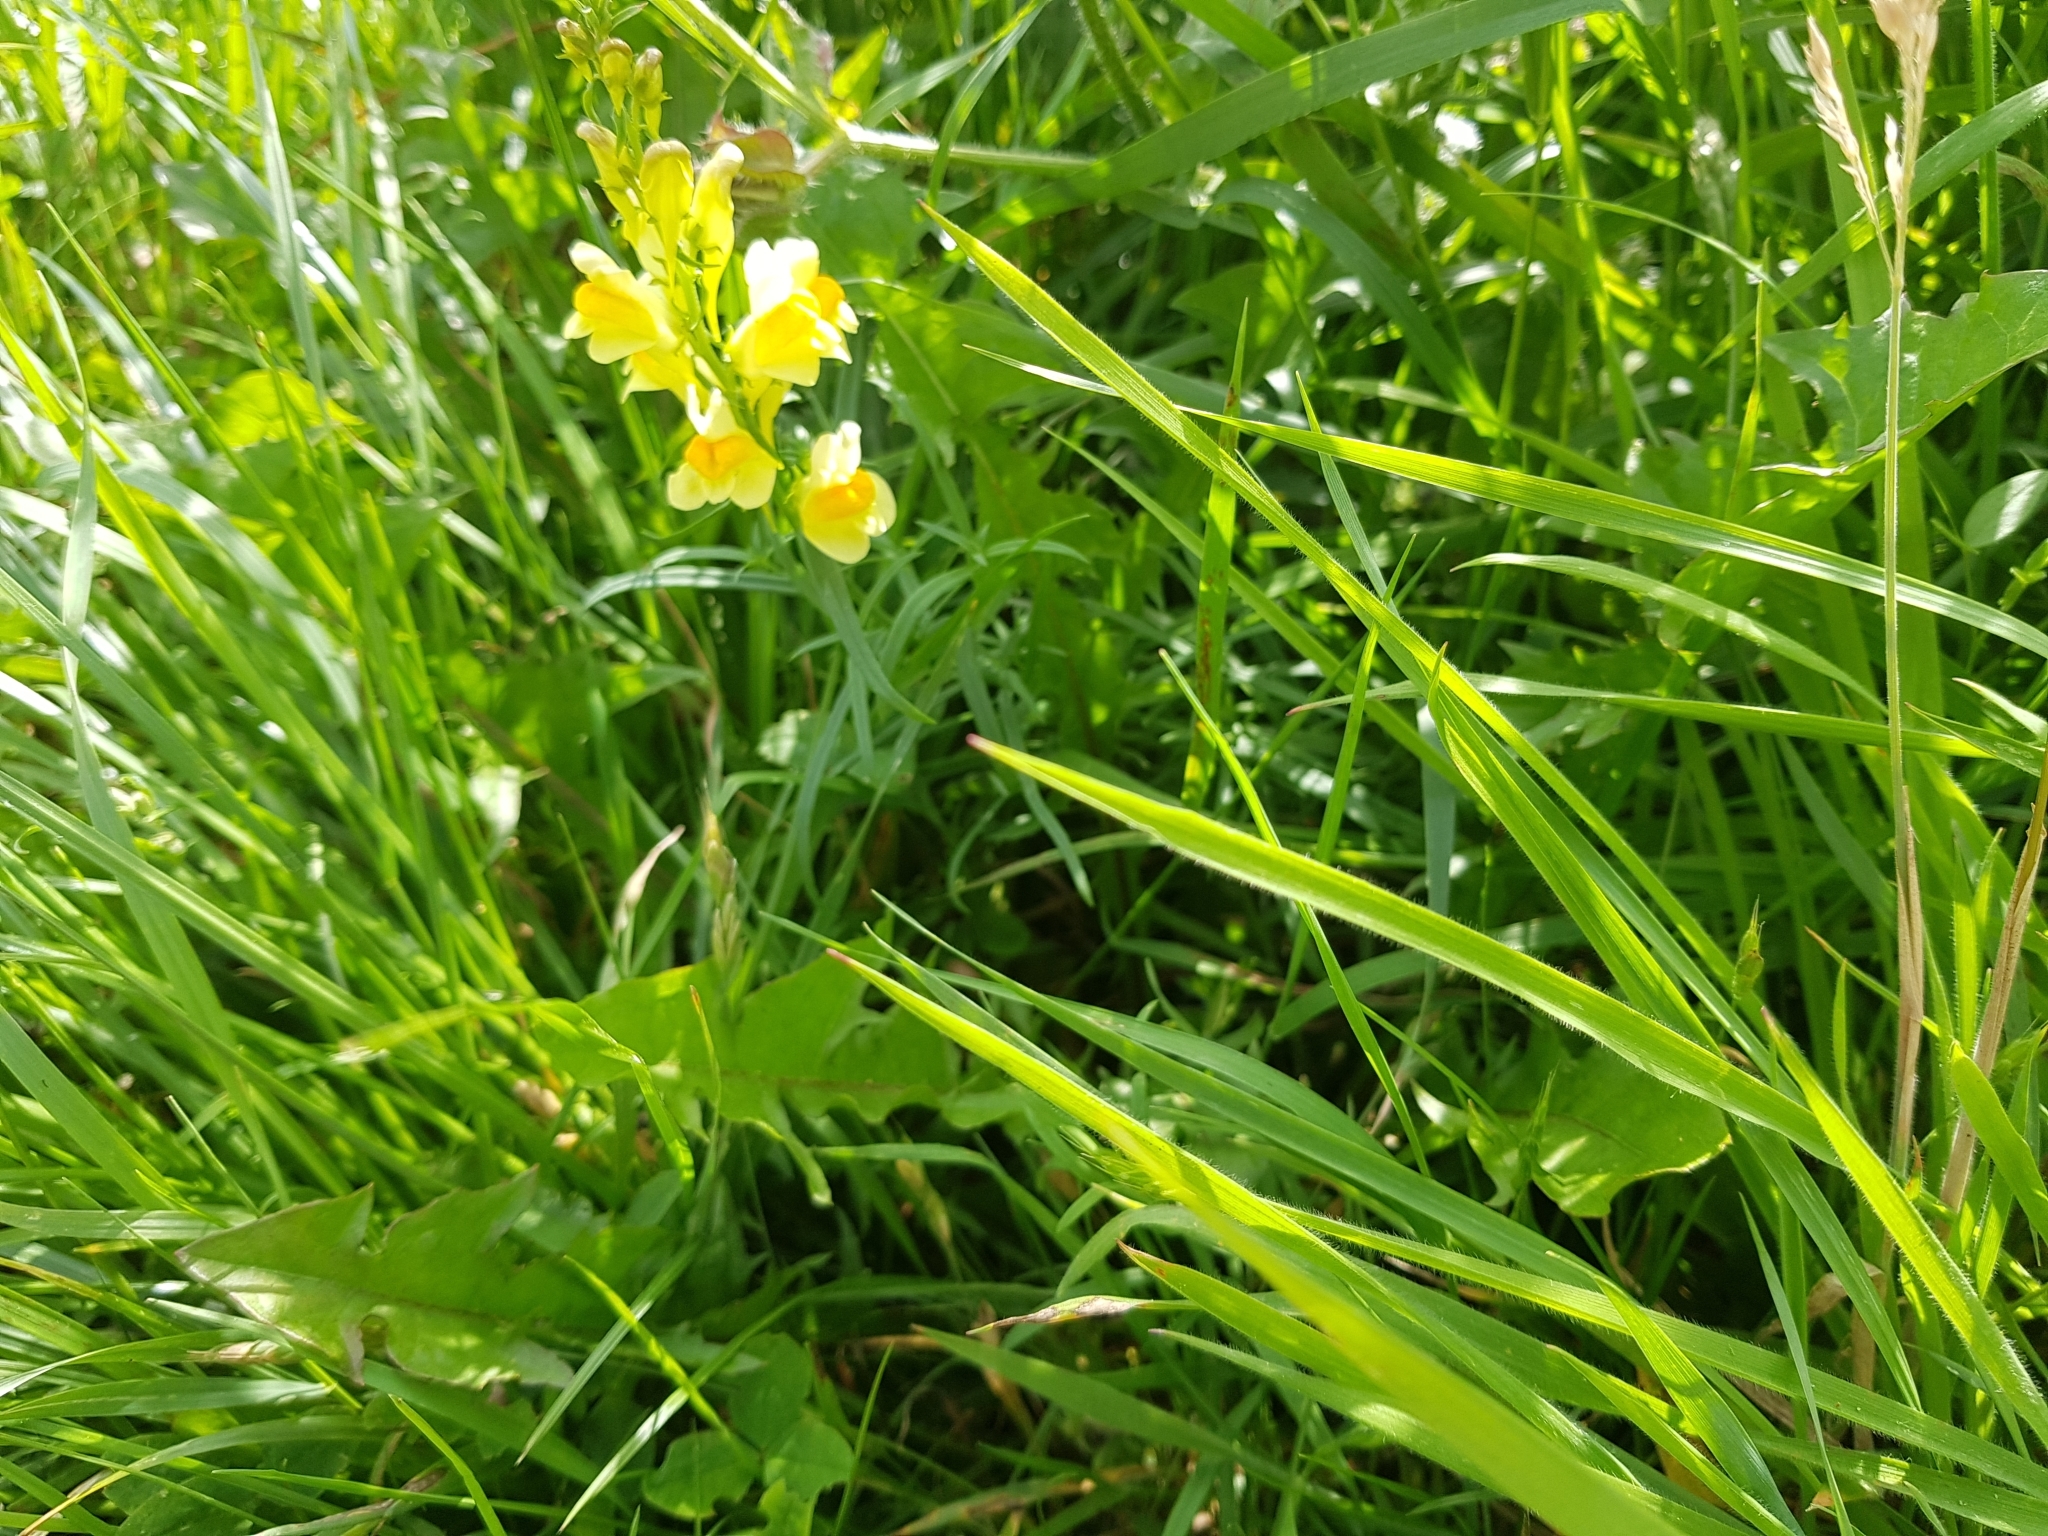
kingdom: Plantae
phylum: Tracheophyta
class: Magnoliopsida
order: Lamiales
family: Plantaginaceae
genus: Linaria
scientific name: Linaria vulgaris
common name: Butter and eggs
